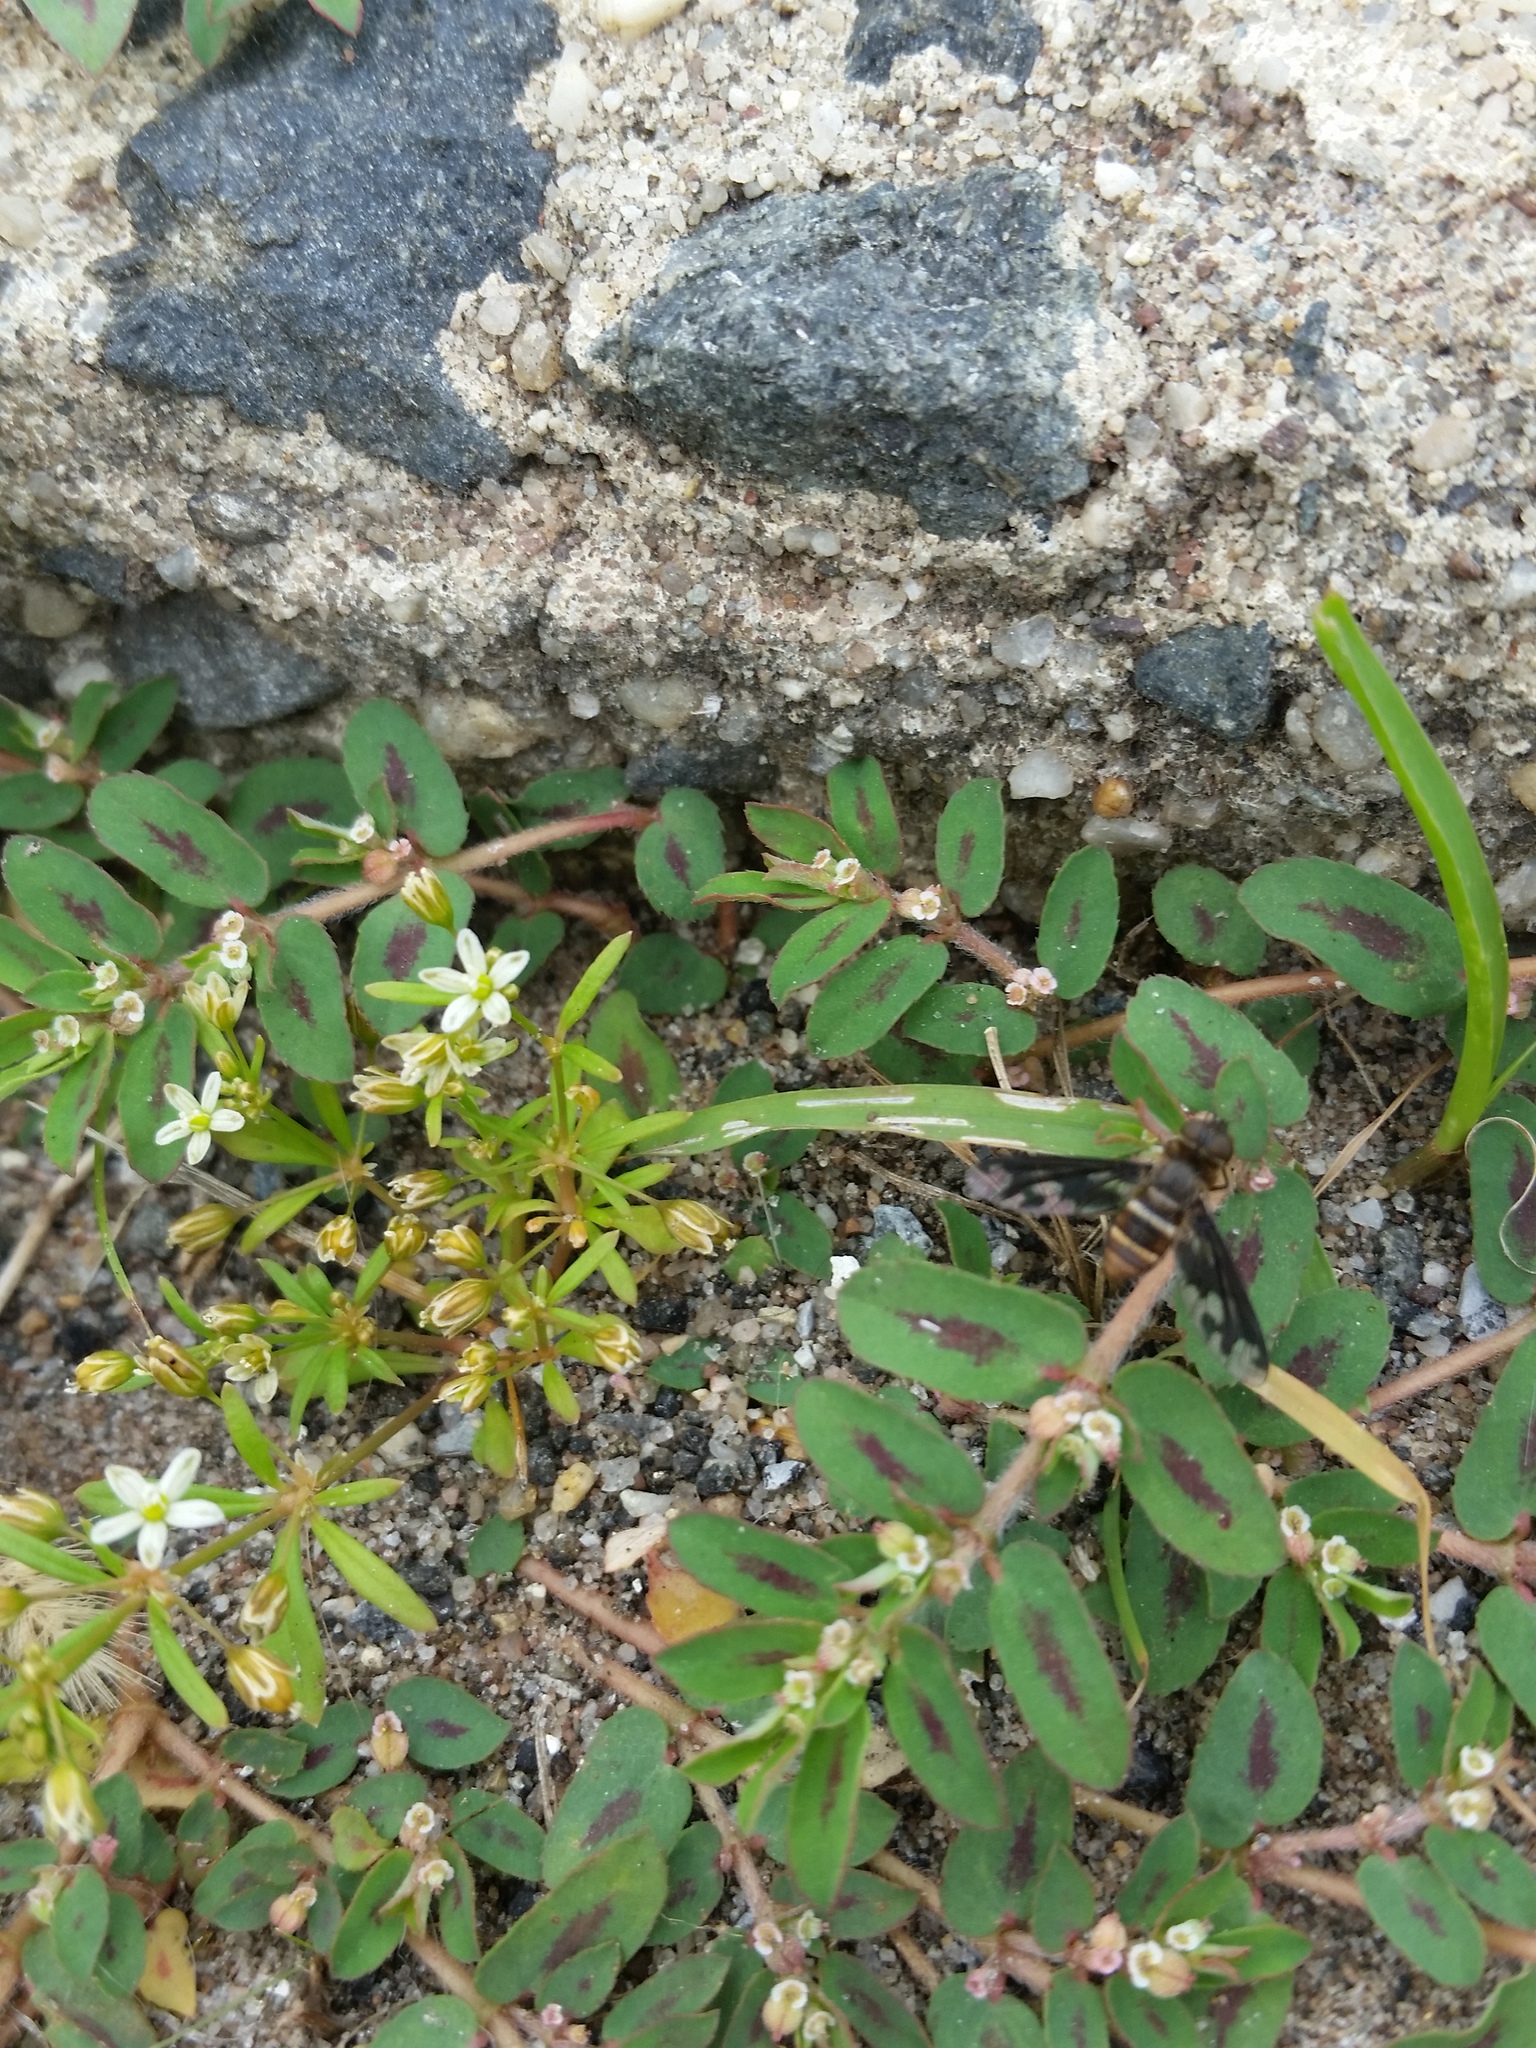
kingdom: Plantae
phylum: Tracheophyta
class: Magnoliopsida
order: Caryophyllales
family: Molluginaceae
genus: Mollugo
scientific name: Mollugo verticillata
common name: Green carpetweed
